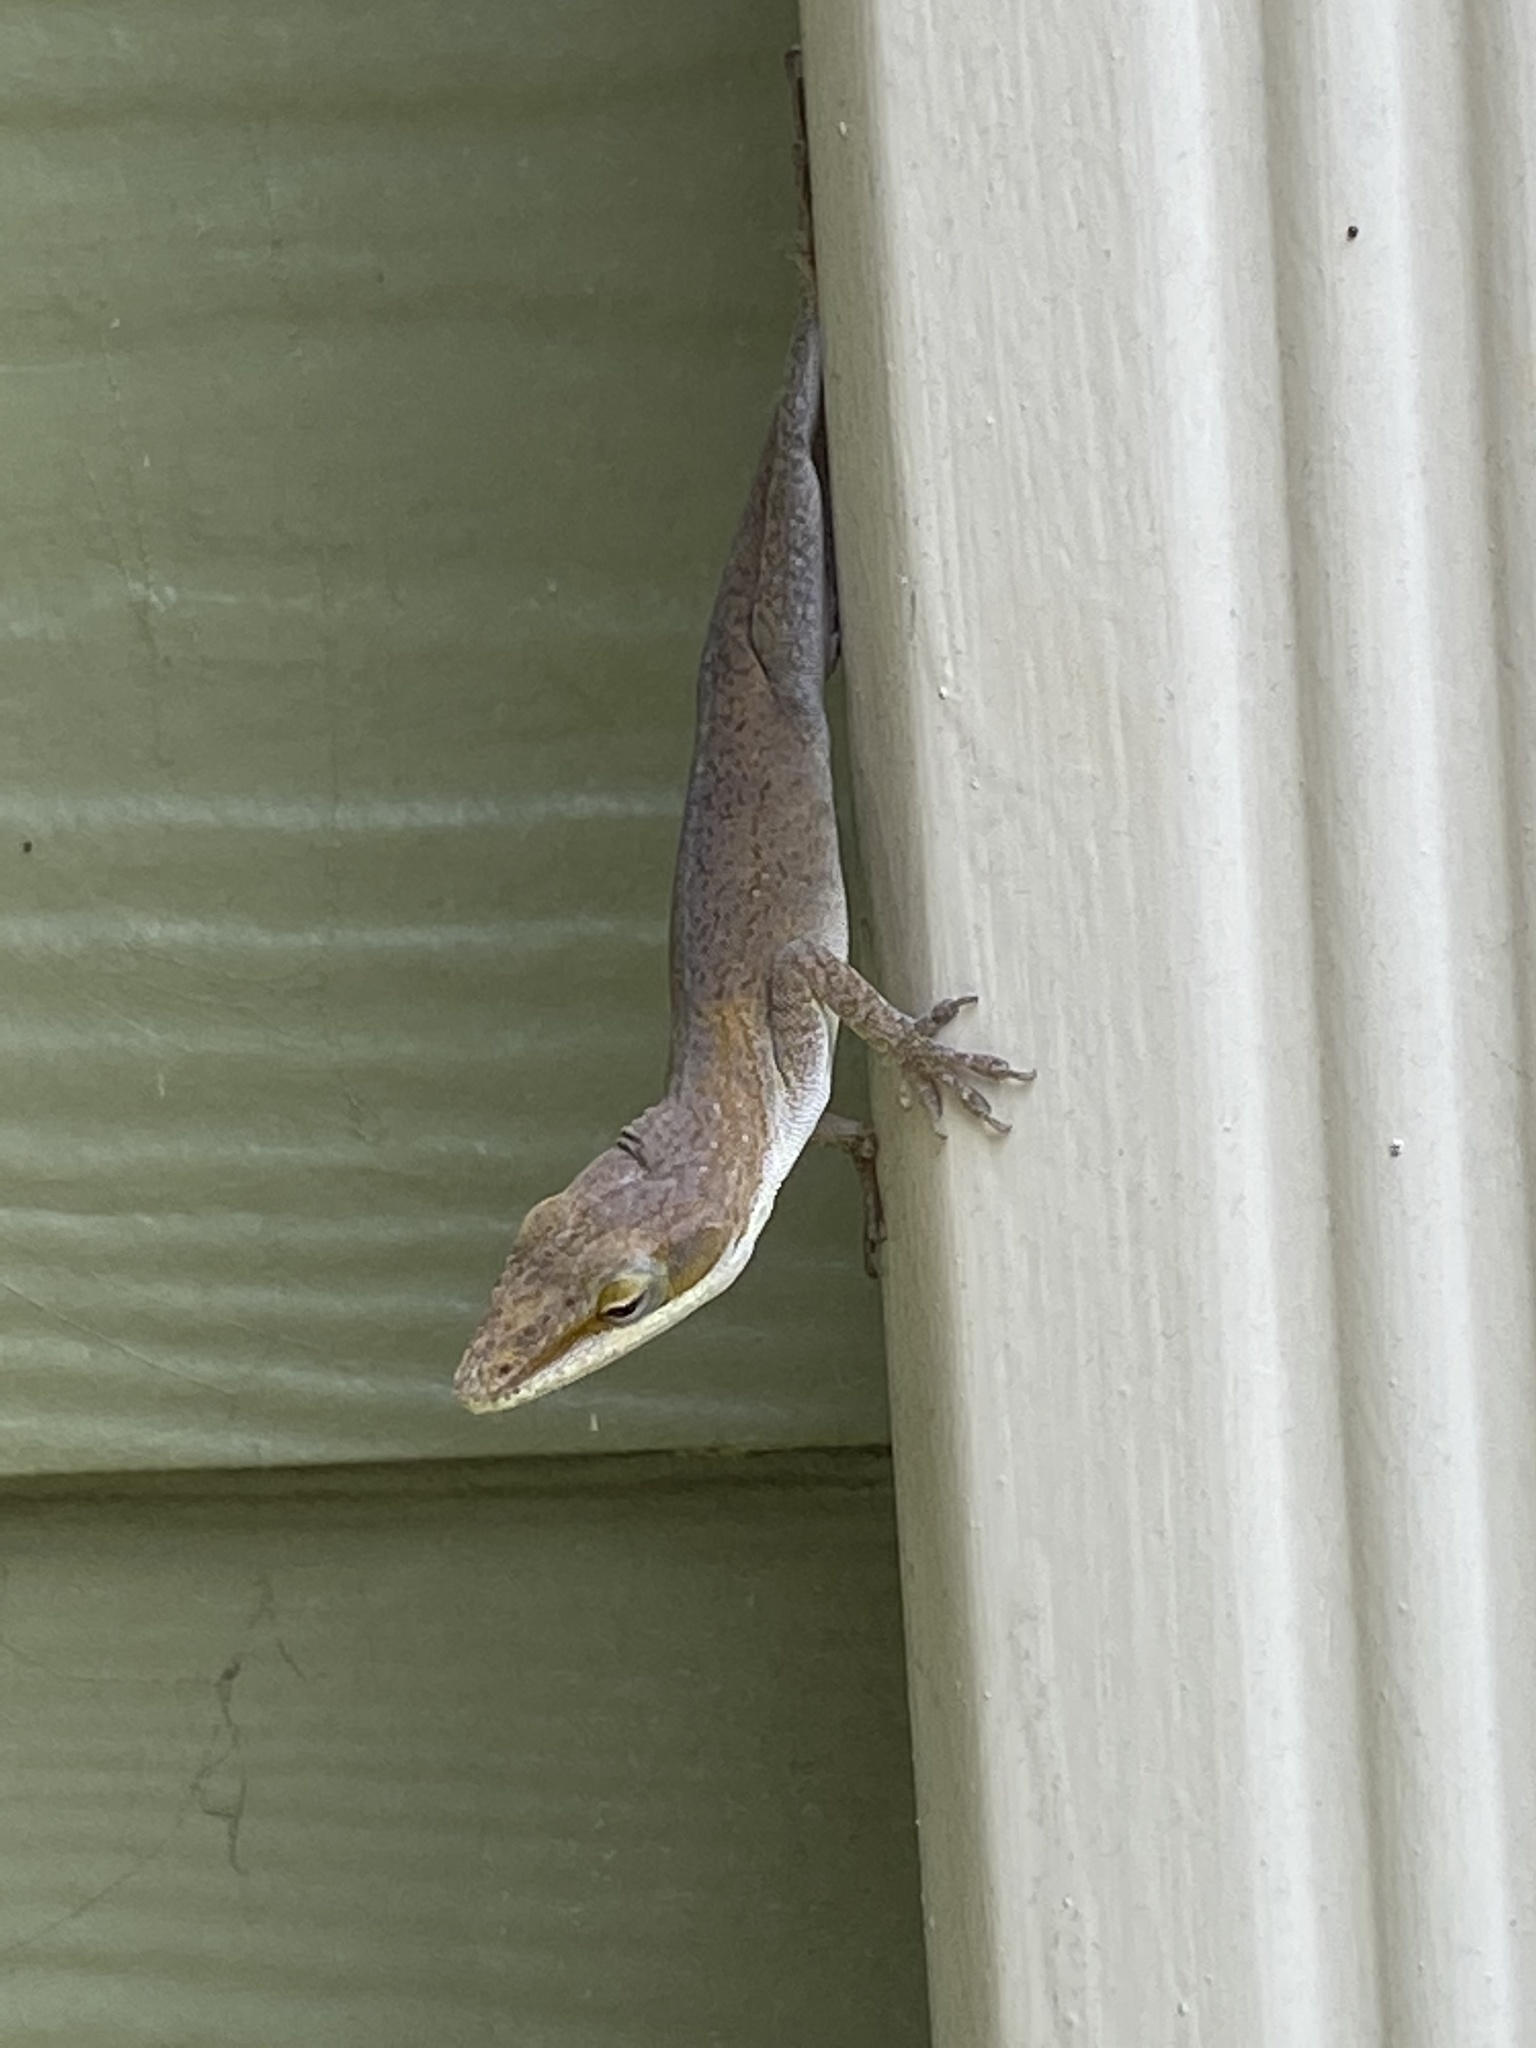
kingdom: Animalia
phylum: Chordata
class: Squamata
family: Dactyloidae
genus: Anolis
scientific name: Anolis carolinensis
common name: Green anole
